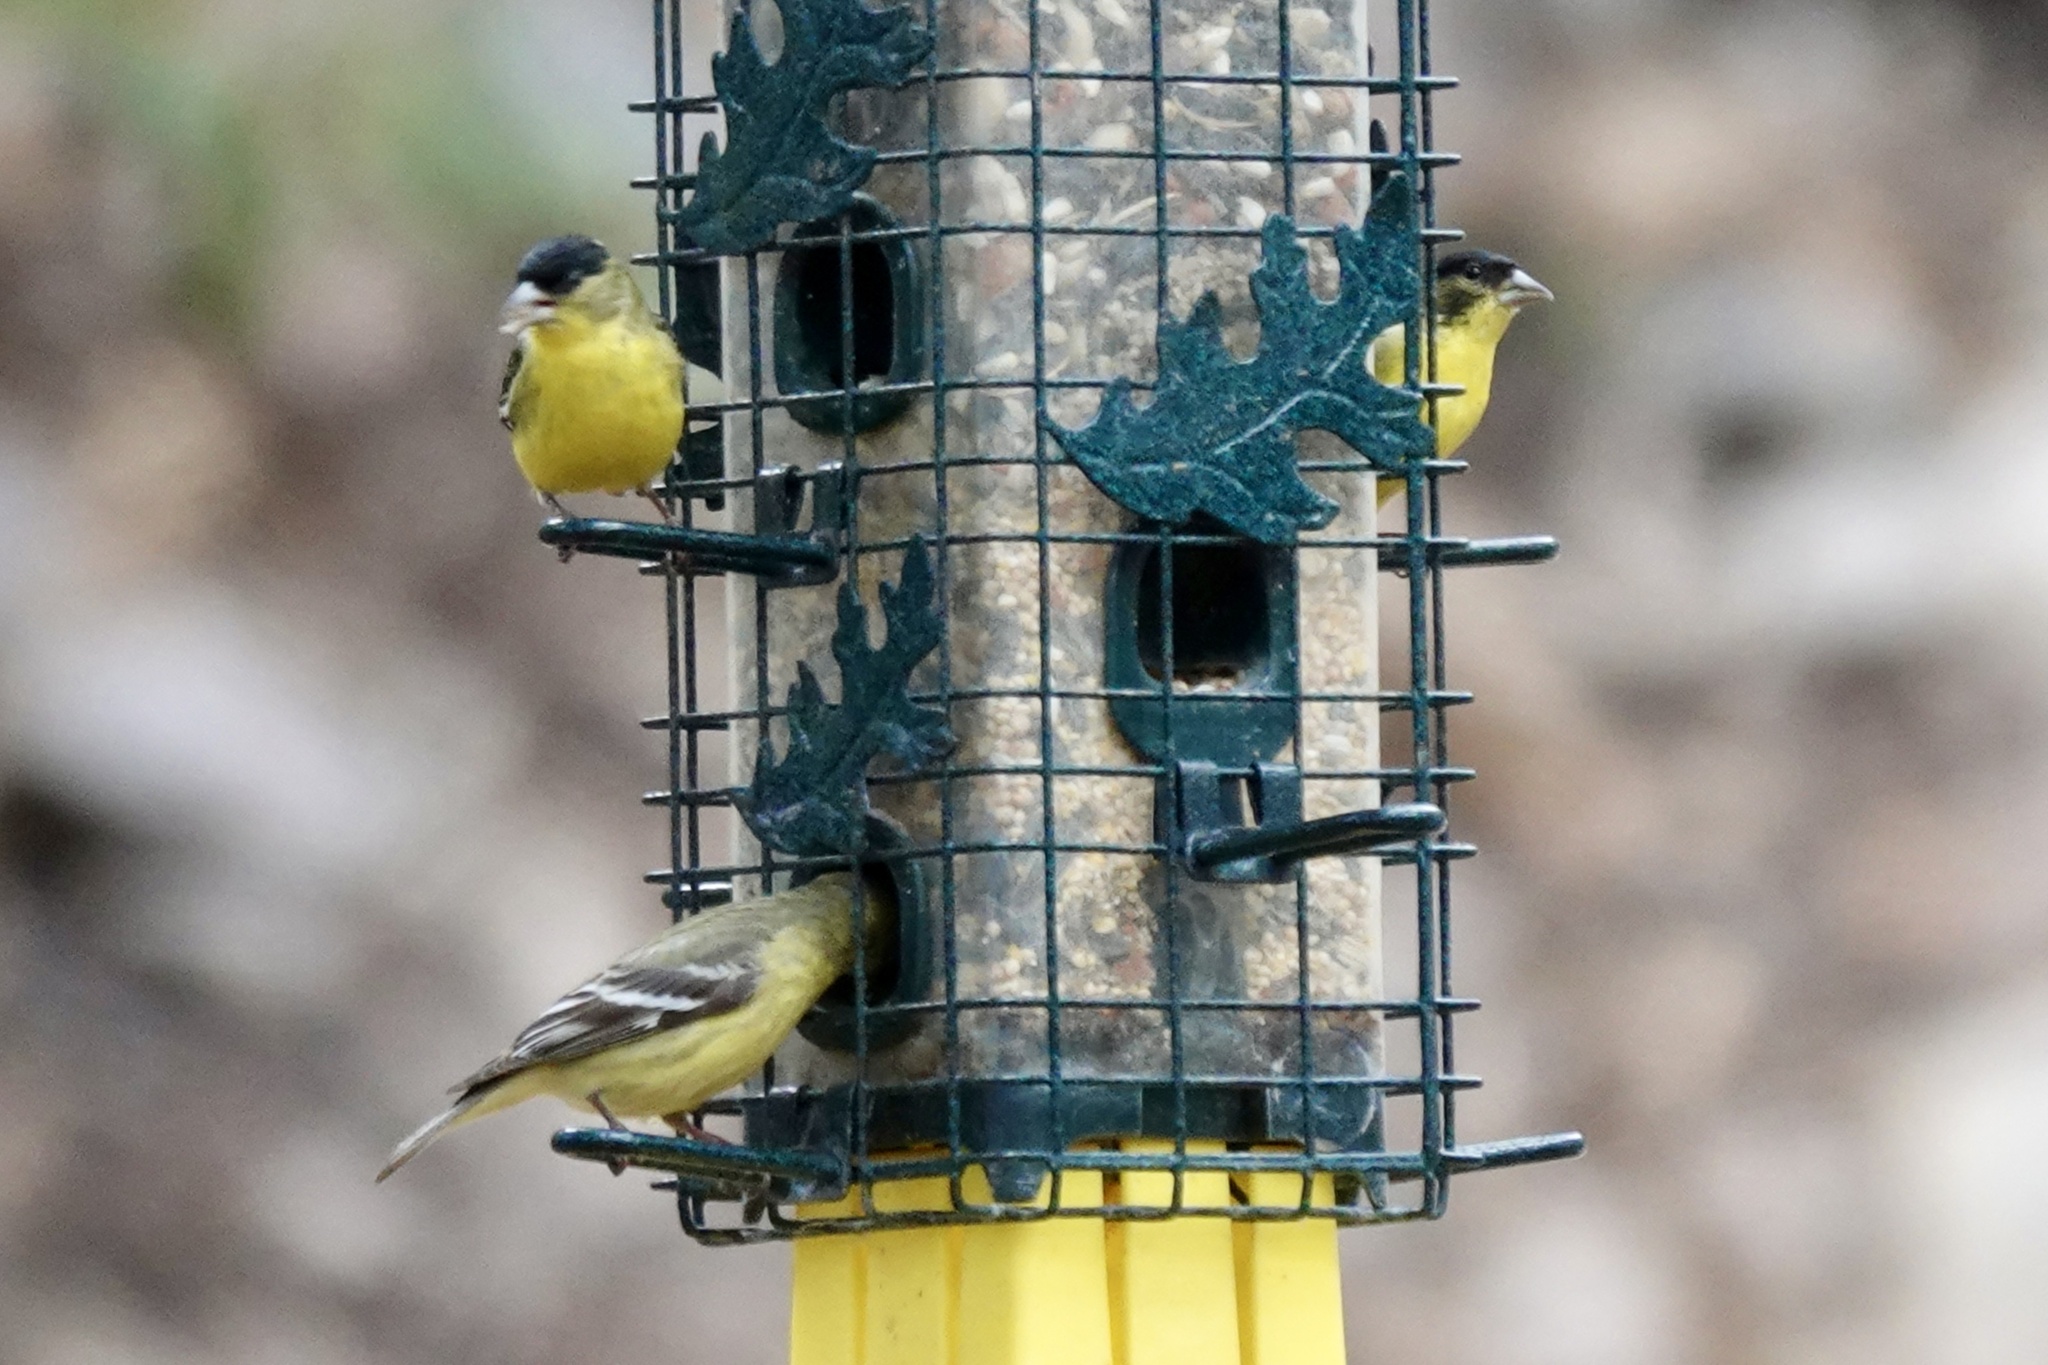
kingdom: Animalia
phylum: Chordata
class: Aves
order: Passeriformes
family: Fringillidae
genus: Spinus
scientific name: Spinus psaltria
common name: Lesser goldfinch
